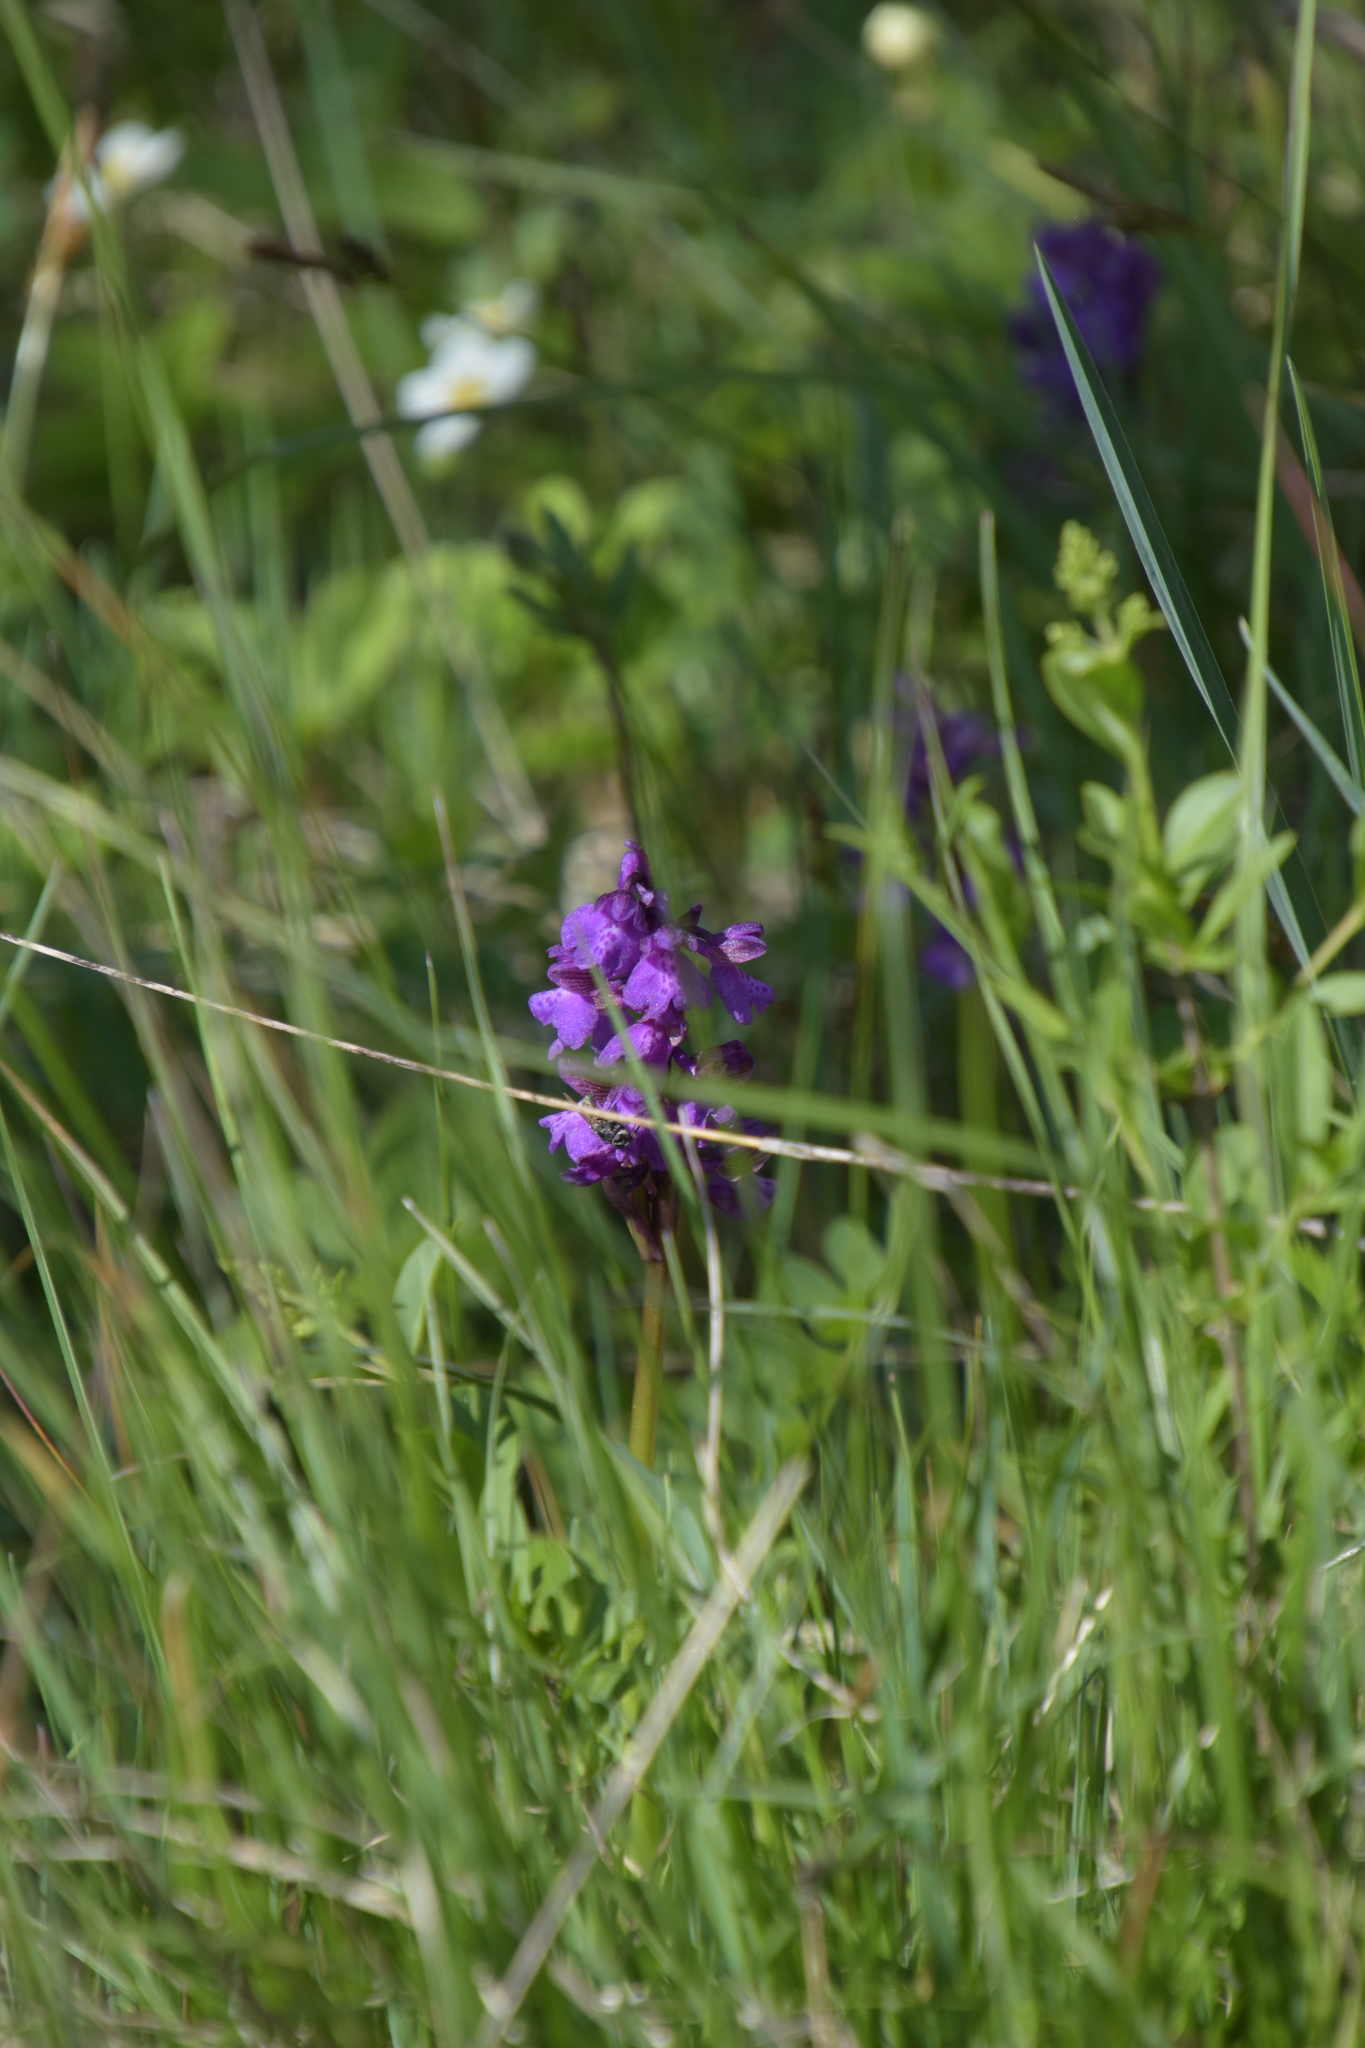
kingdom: Plantae
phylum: Tracheophyta
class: Liliopsida
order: Asparagales
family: Orchidaceae
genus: Anacamptis
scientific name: Anacamptis morio
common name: Green-winged orchid
